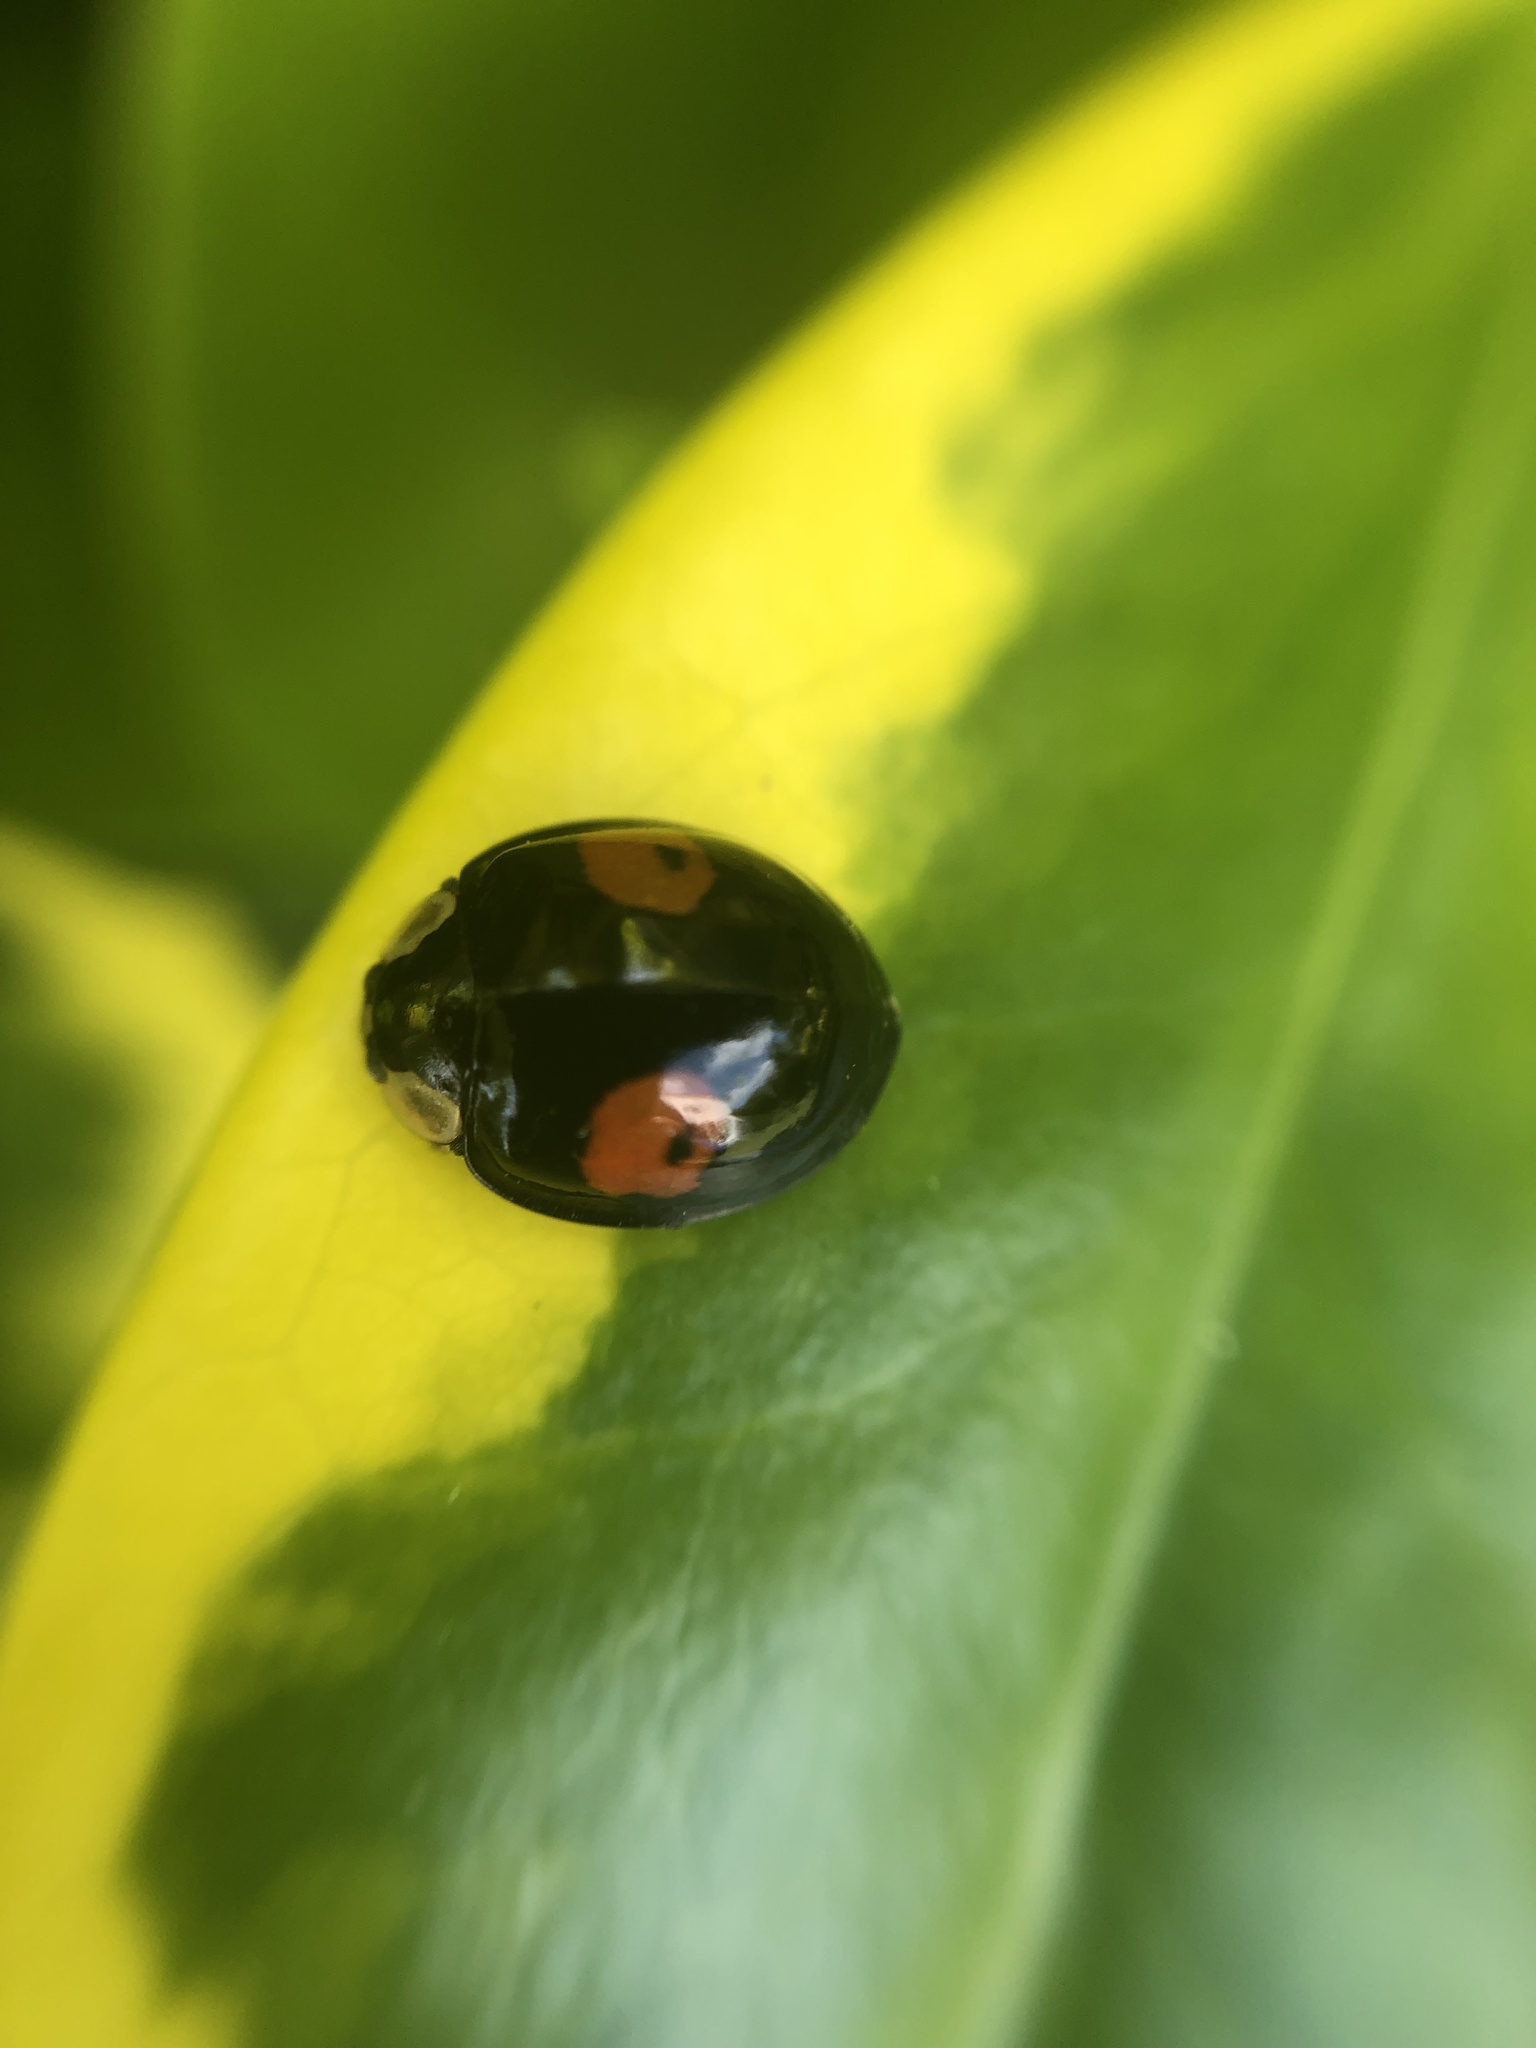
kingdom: Animalia
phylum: Arthropoda
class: Insecta
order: Coleoptera
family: Coccinellidae
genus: Harmonia
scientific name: Harmonia axyridis
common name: Harlequin ladybird
